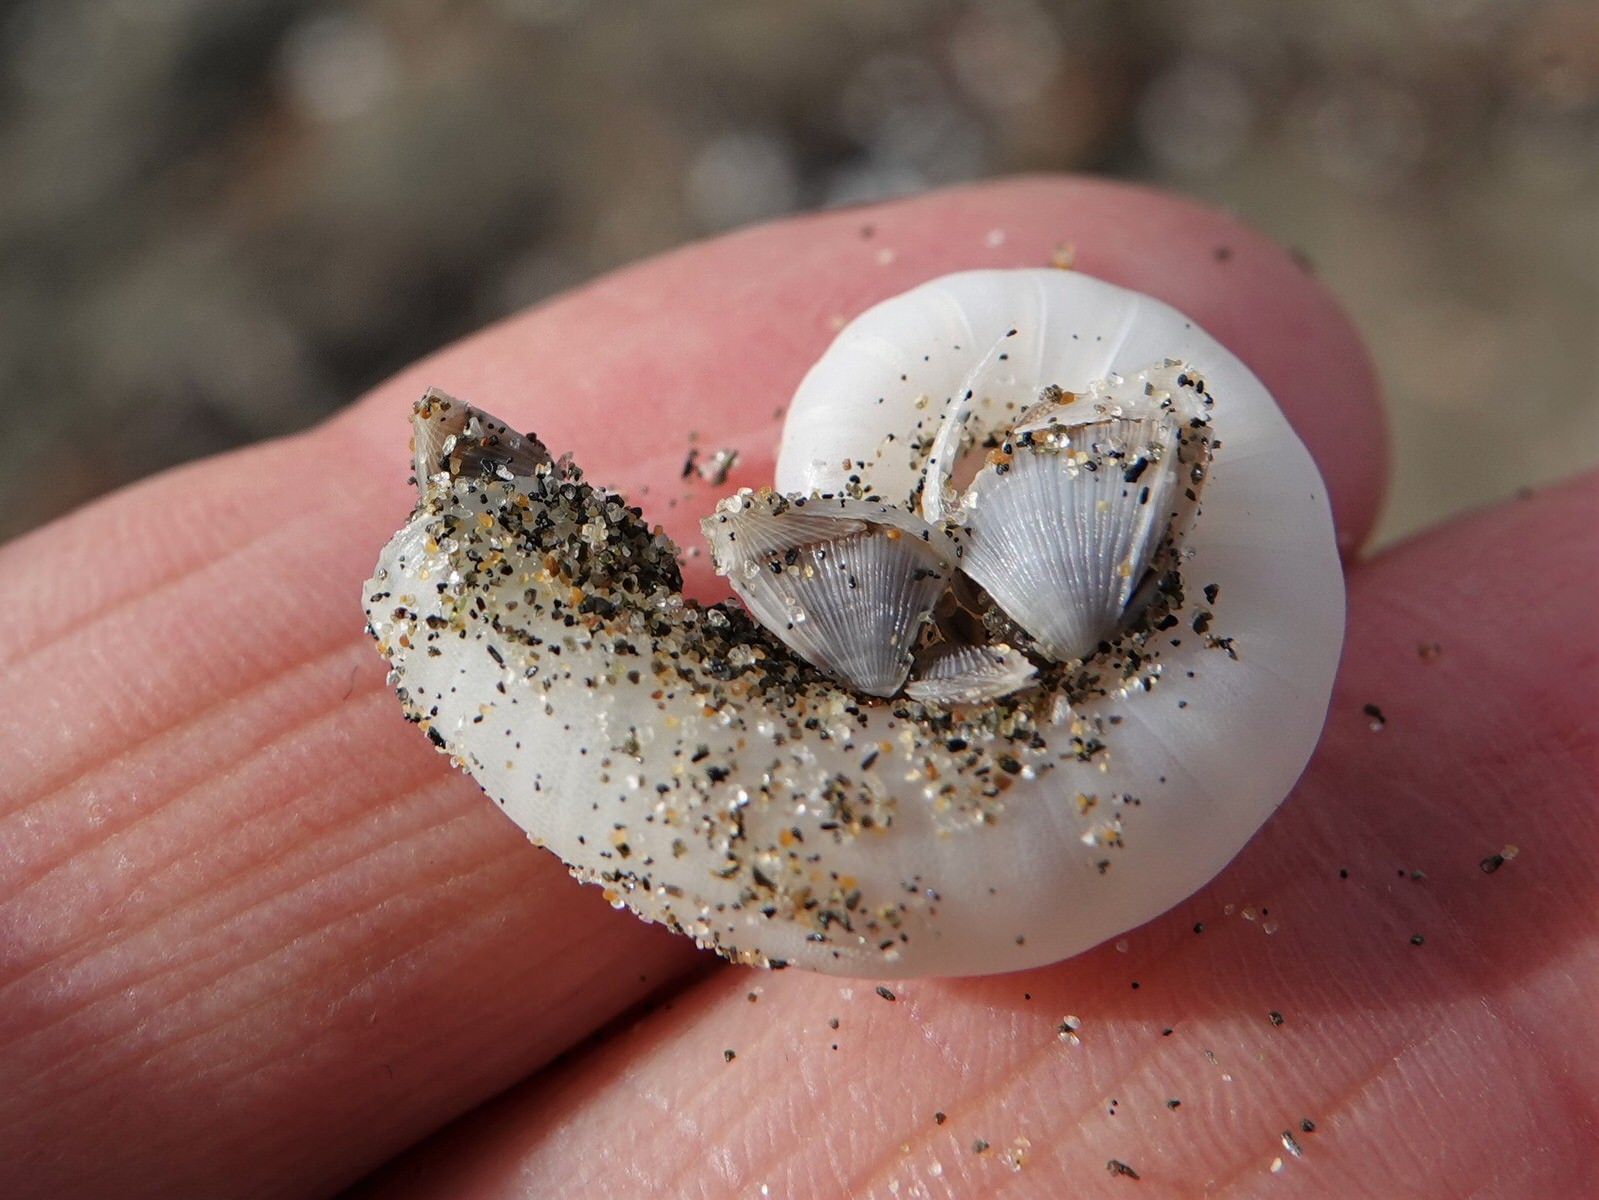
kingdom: Animalia
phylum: Arthropoda
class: Maxillopoda
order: Pedunculata
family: Lepadidae
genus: Lepas
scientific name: Lepas pectinata
